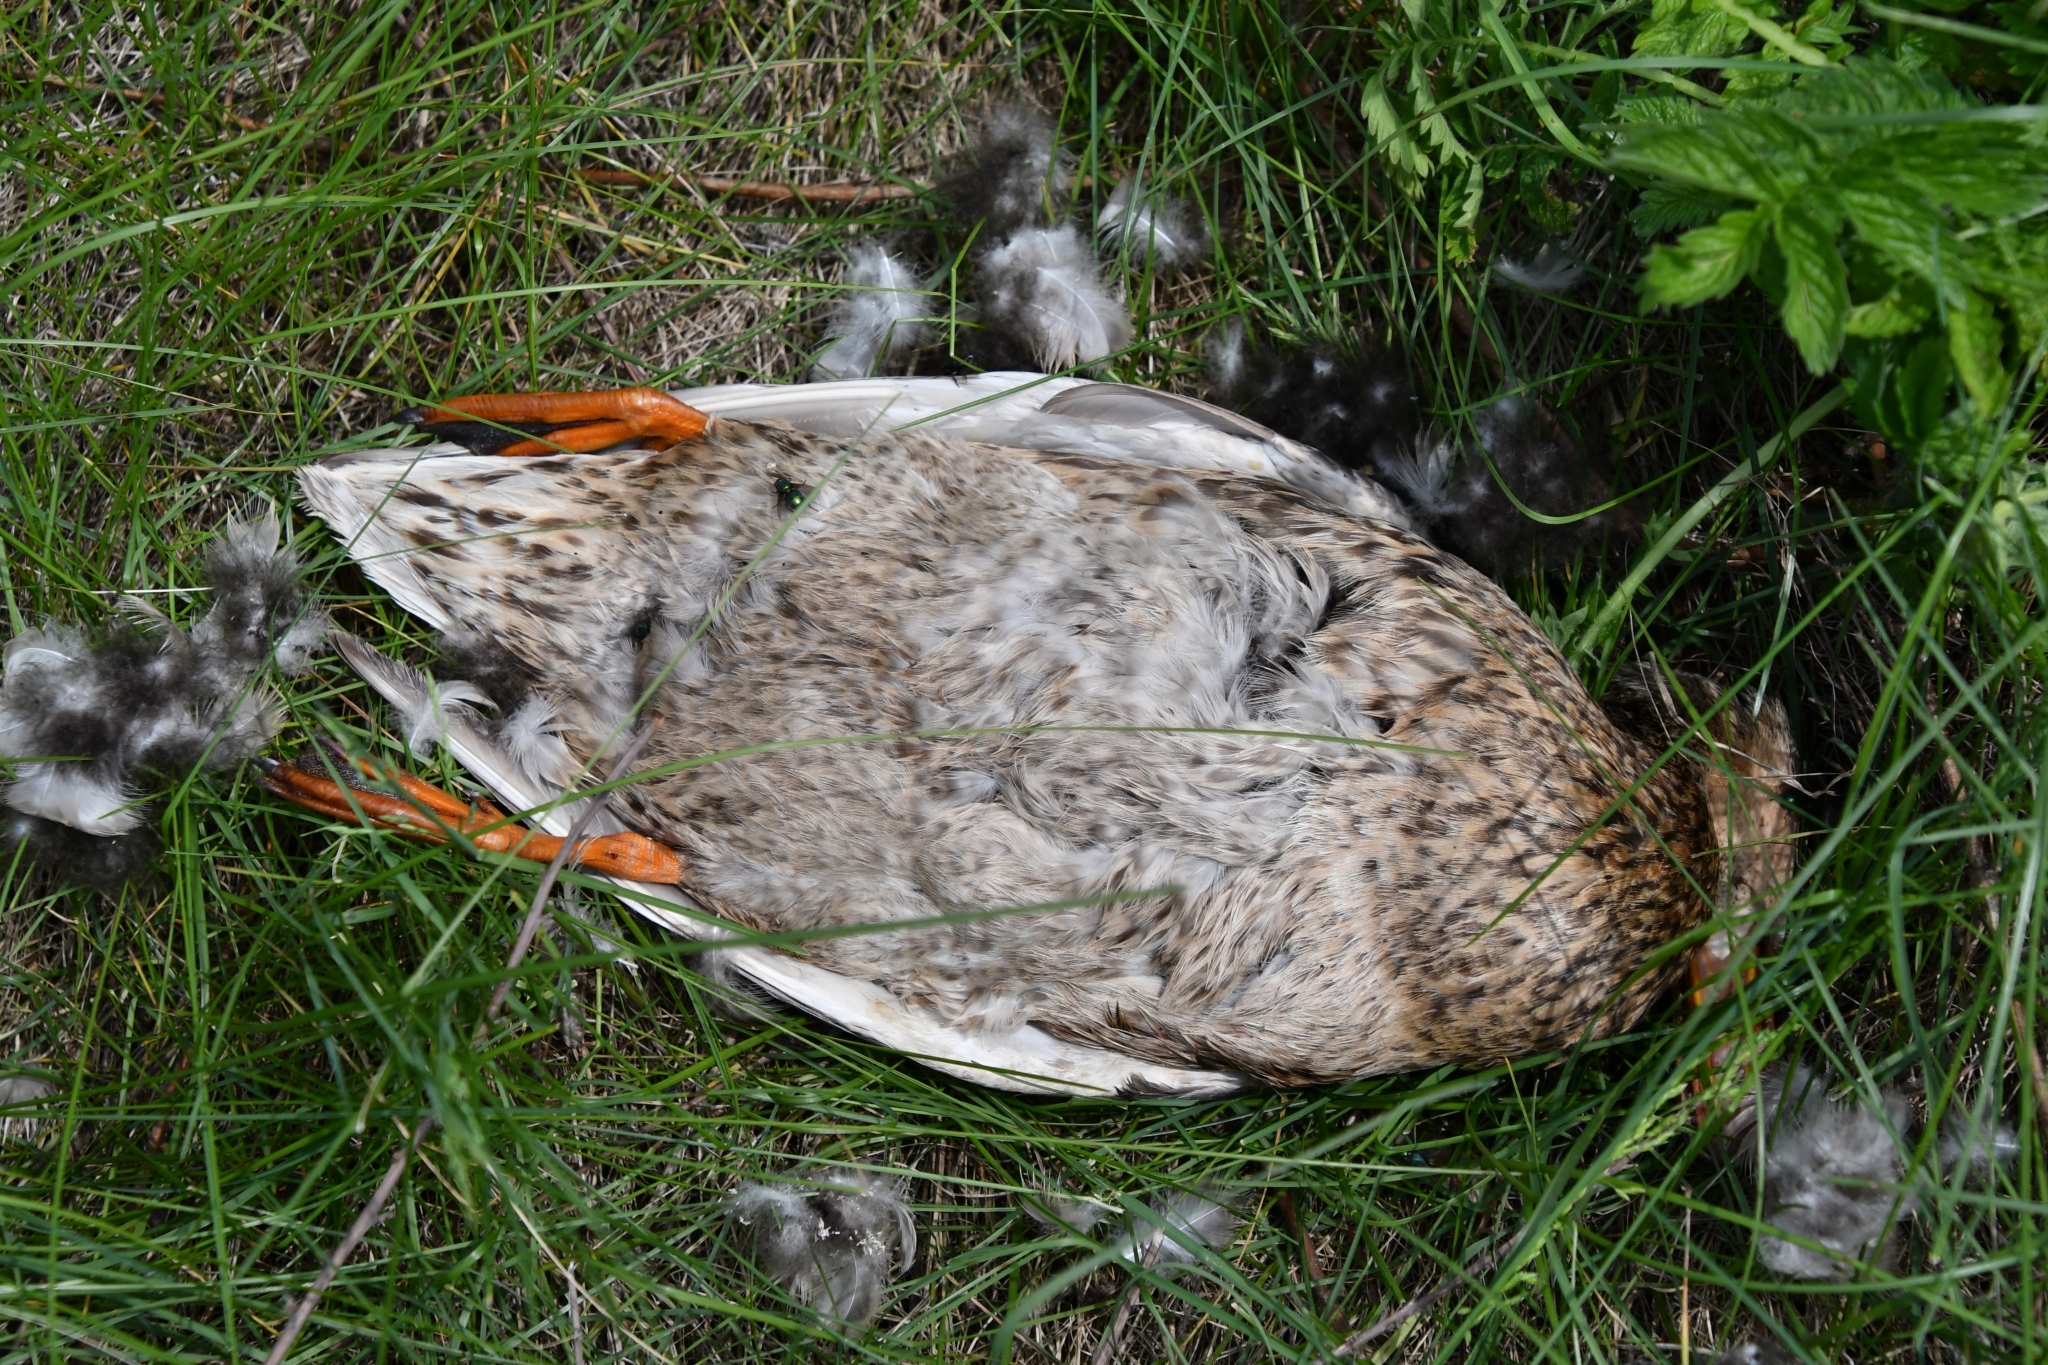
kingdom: Animalia
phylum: Chordata
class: Aves
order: Anseriformes
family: Anatidae
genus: Anas
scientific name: Anas platyrhynchos
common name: Mallard
